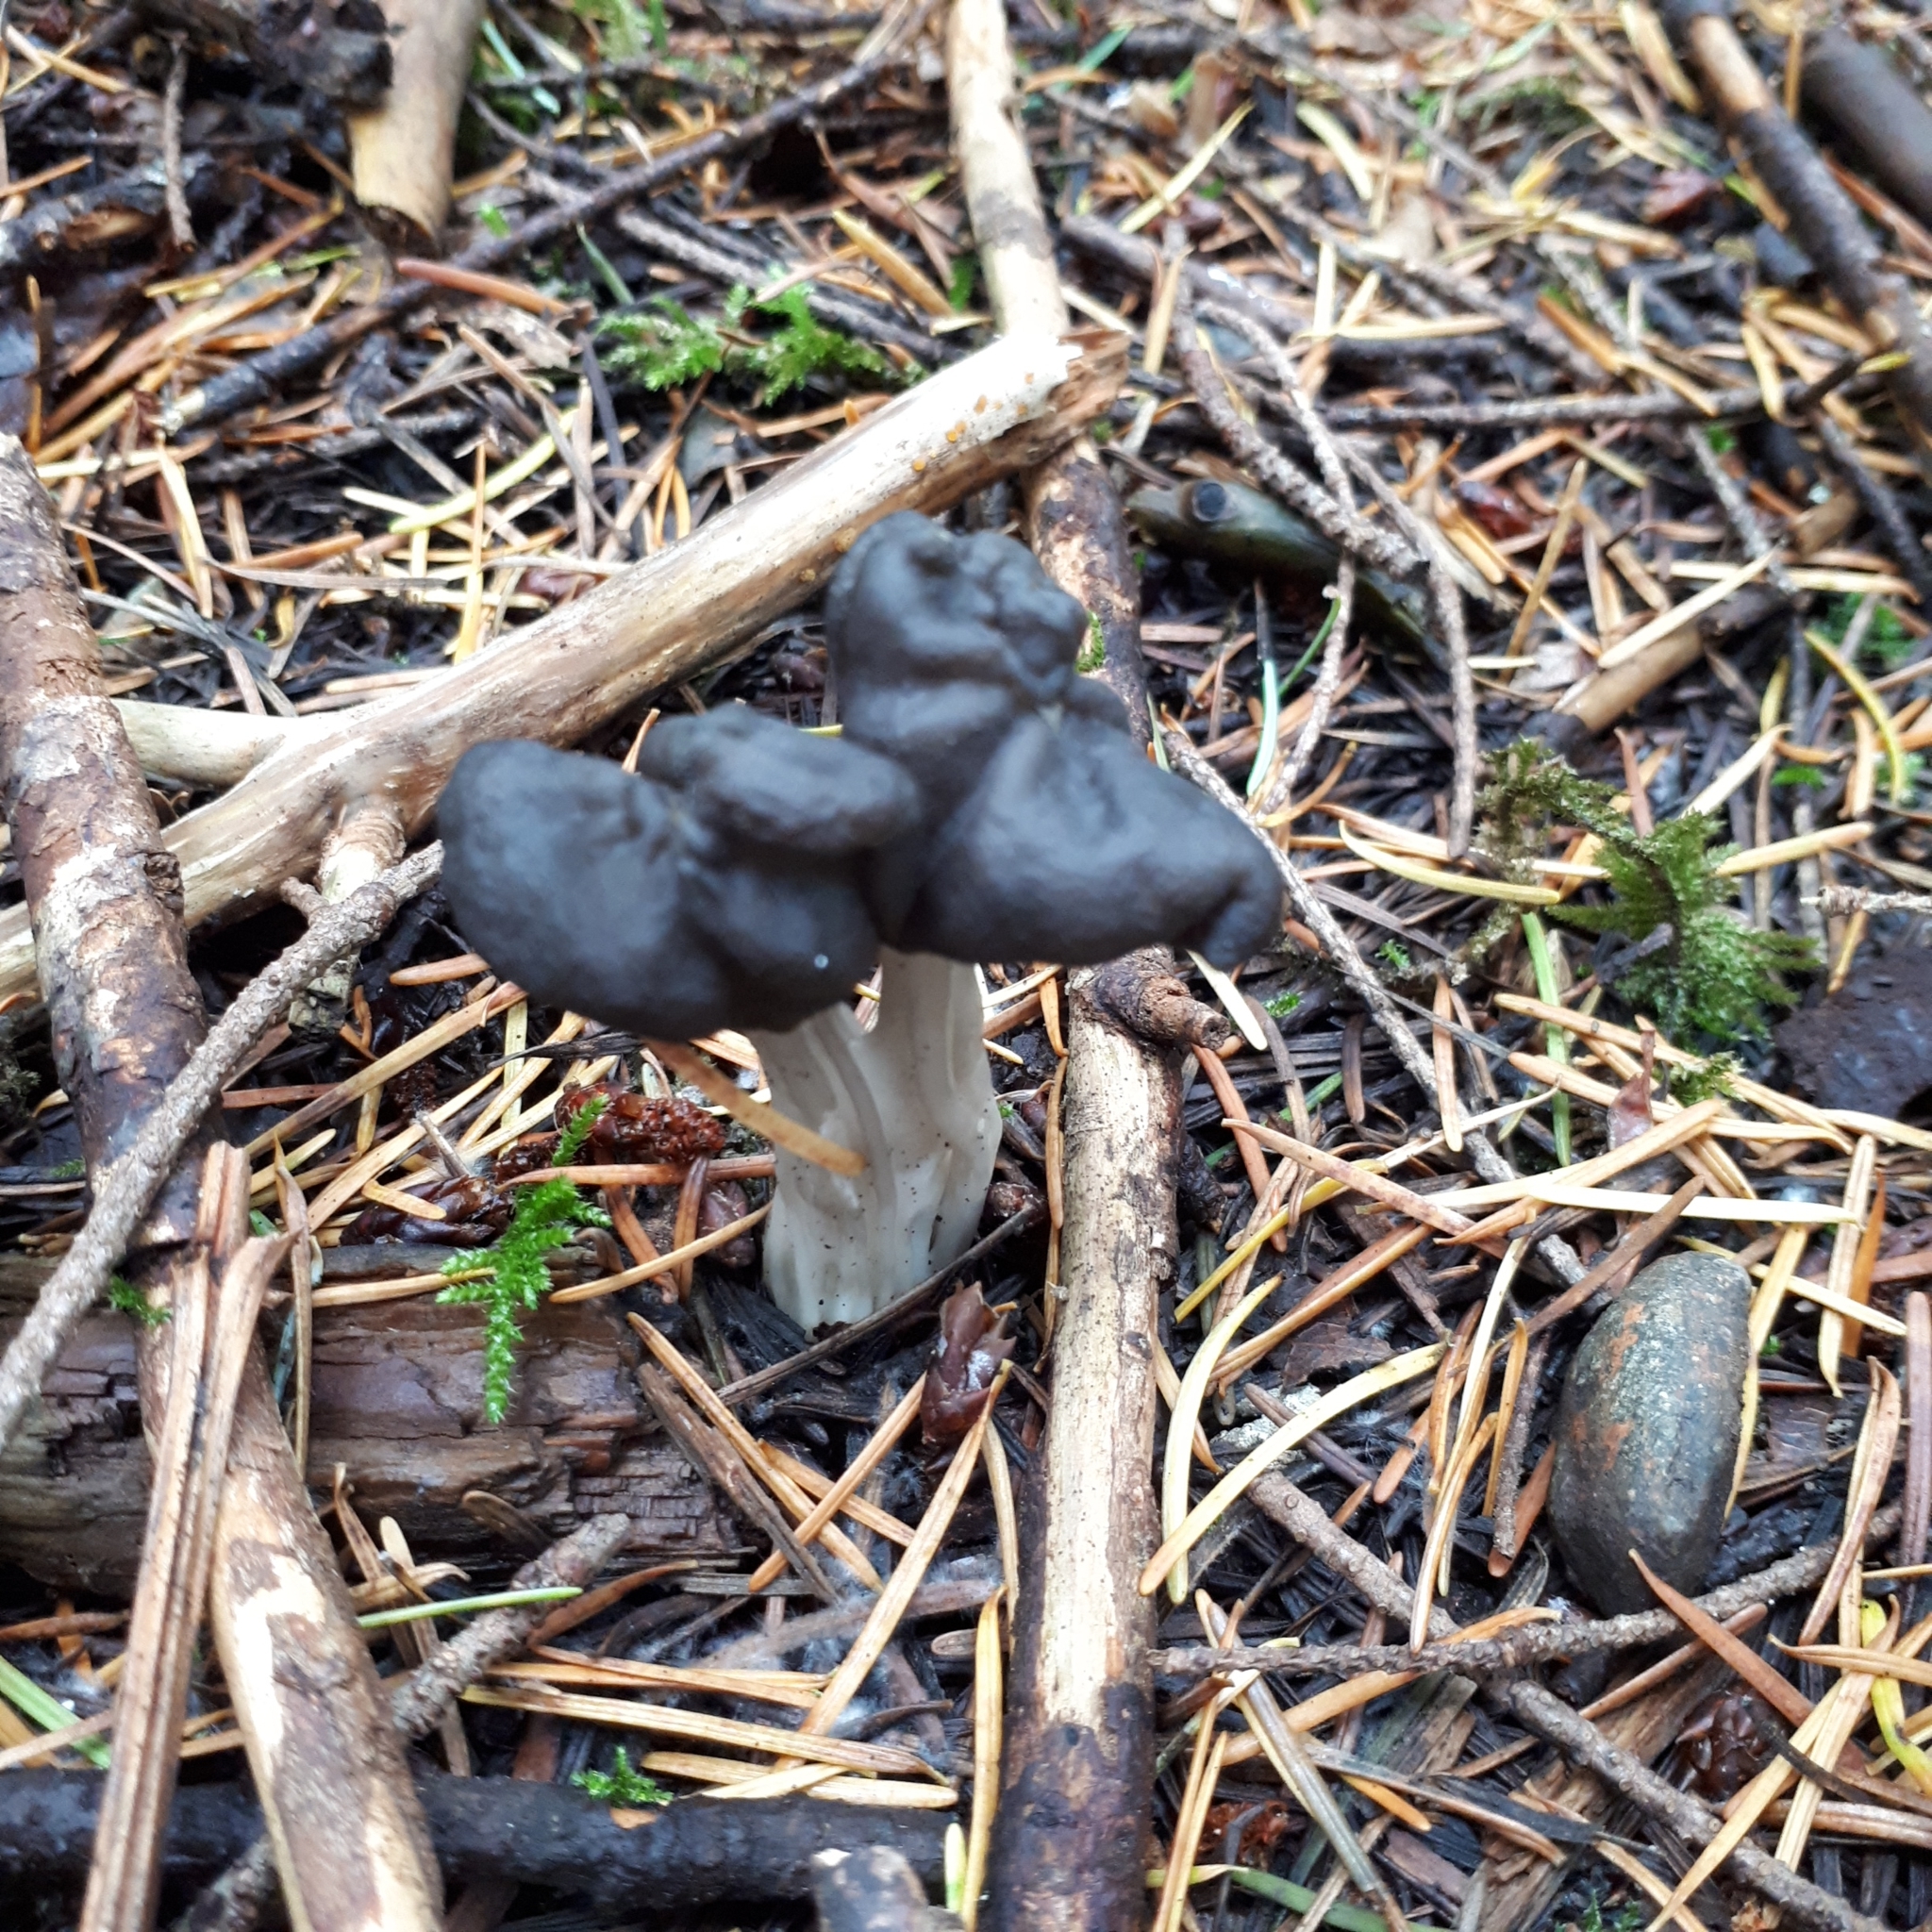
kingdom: Fungi
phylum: Ascomycota
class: Pezizomycetes
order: Pezizales
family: Helvellaceae
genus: Helvella
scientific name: Helvella vespertina
